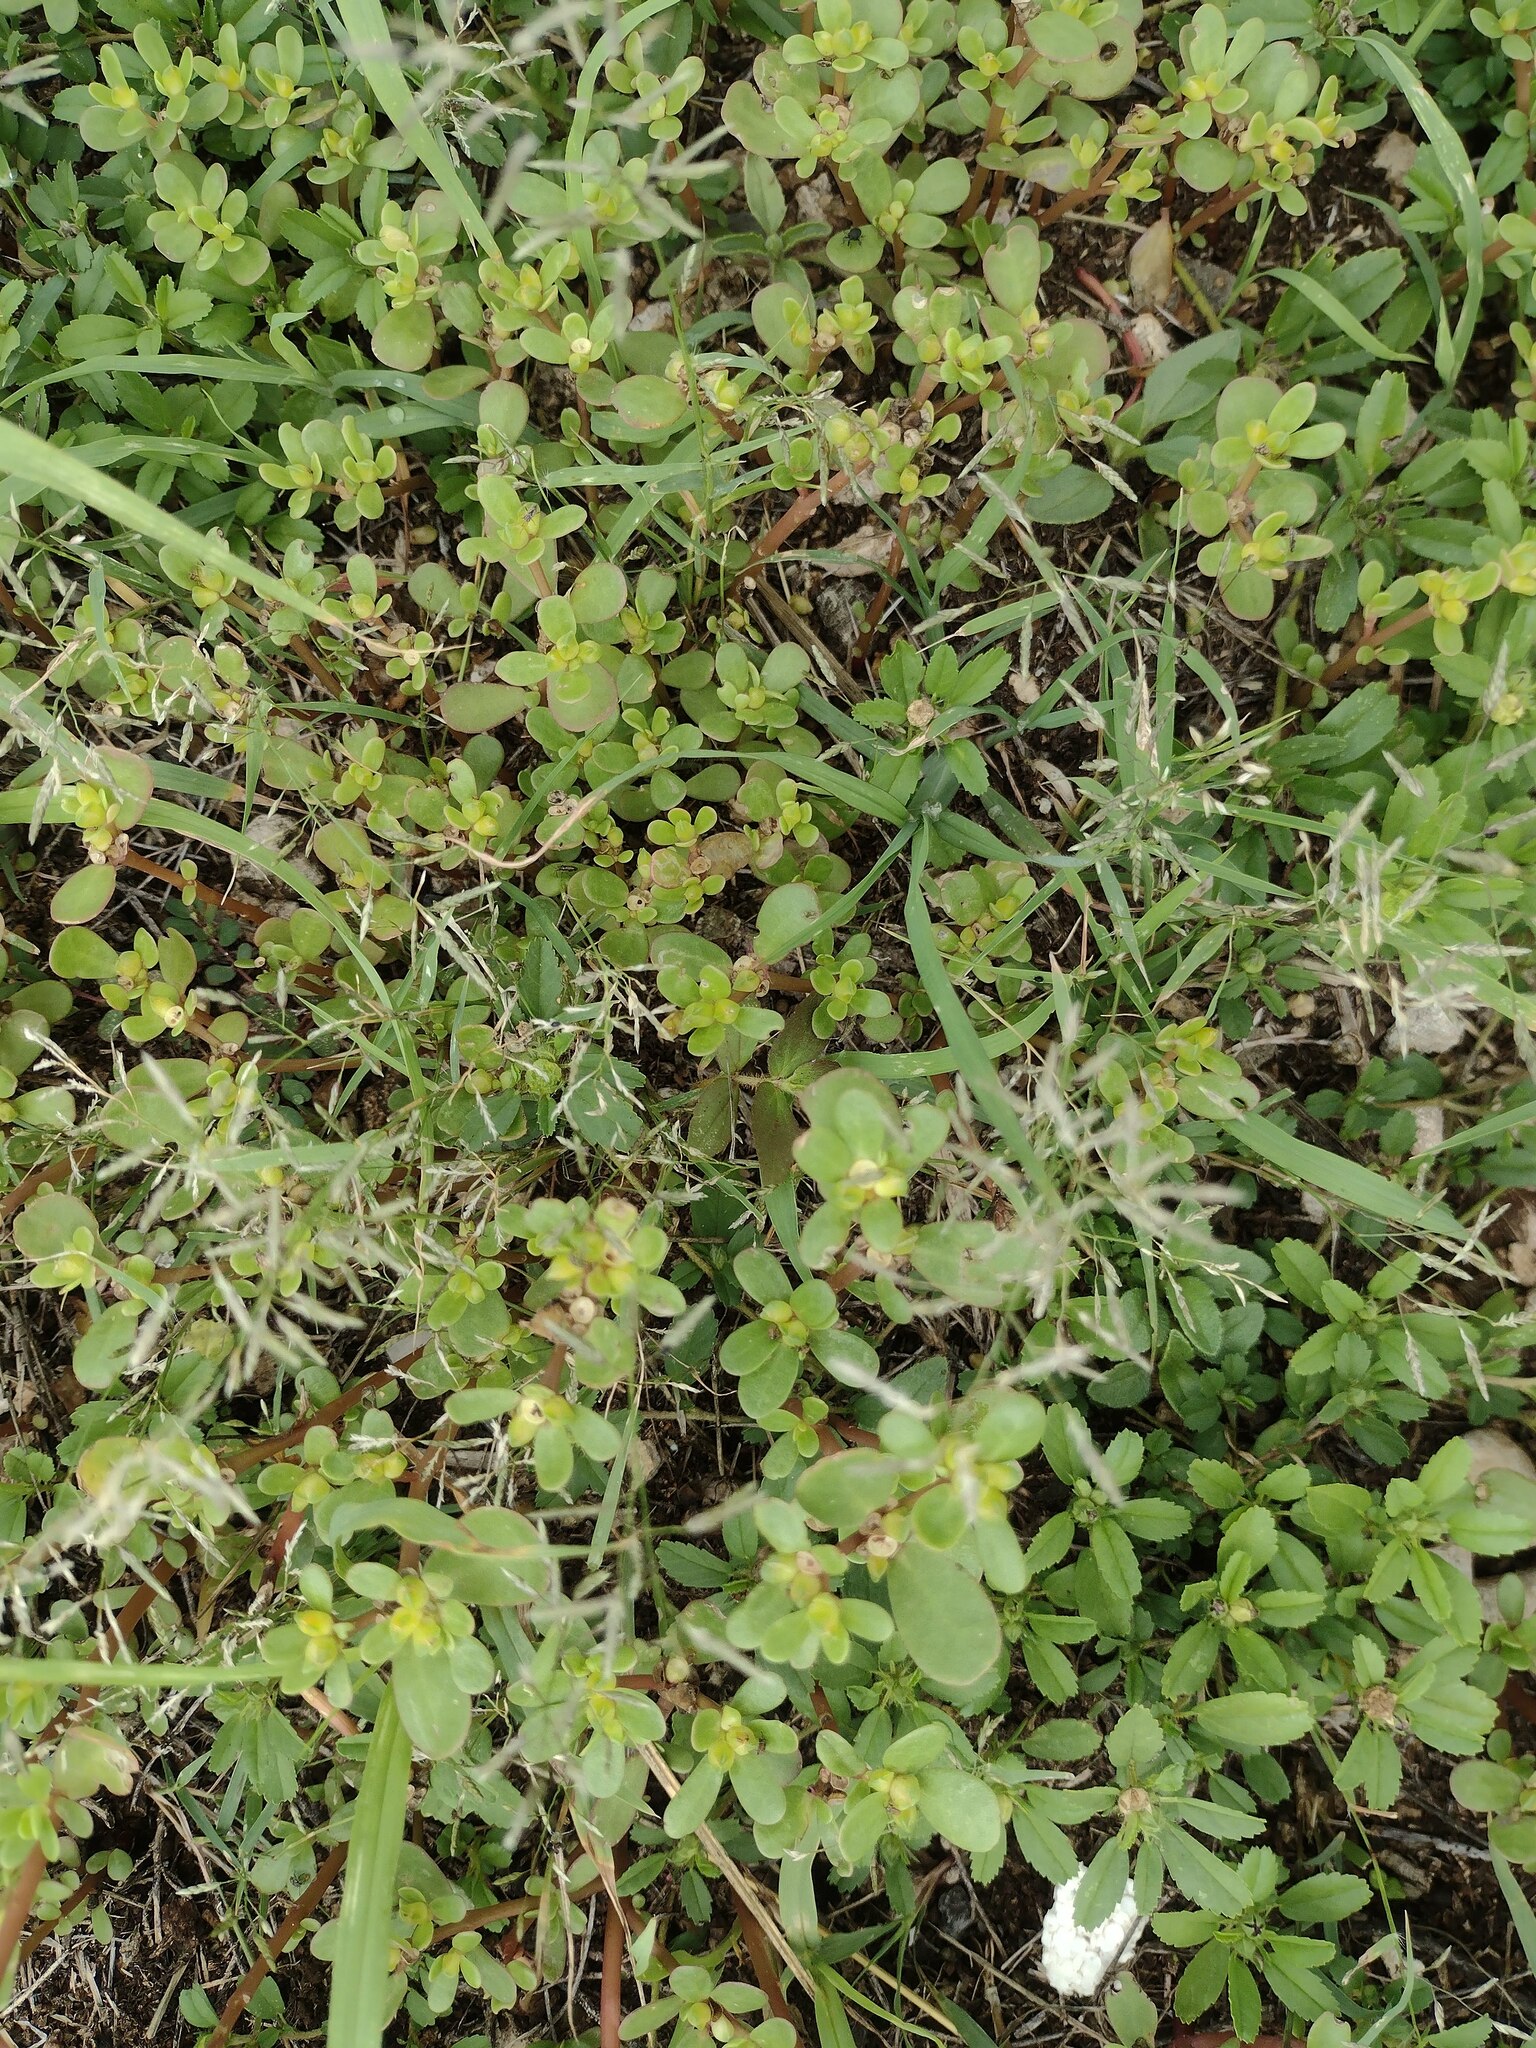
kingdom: Plantae
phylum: Tracheophyta
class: Magnoliopsida
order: Caryophyllales
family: Portulacaceae
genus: Portulaca
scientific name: Portulaca oleracea
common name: Common purslane
